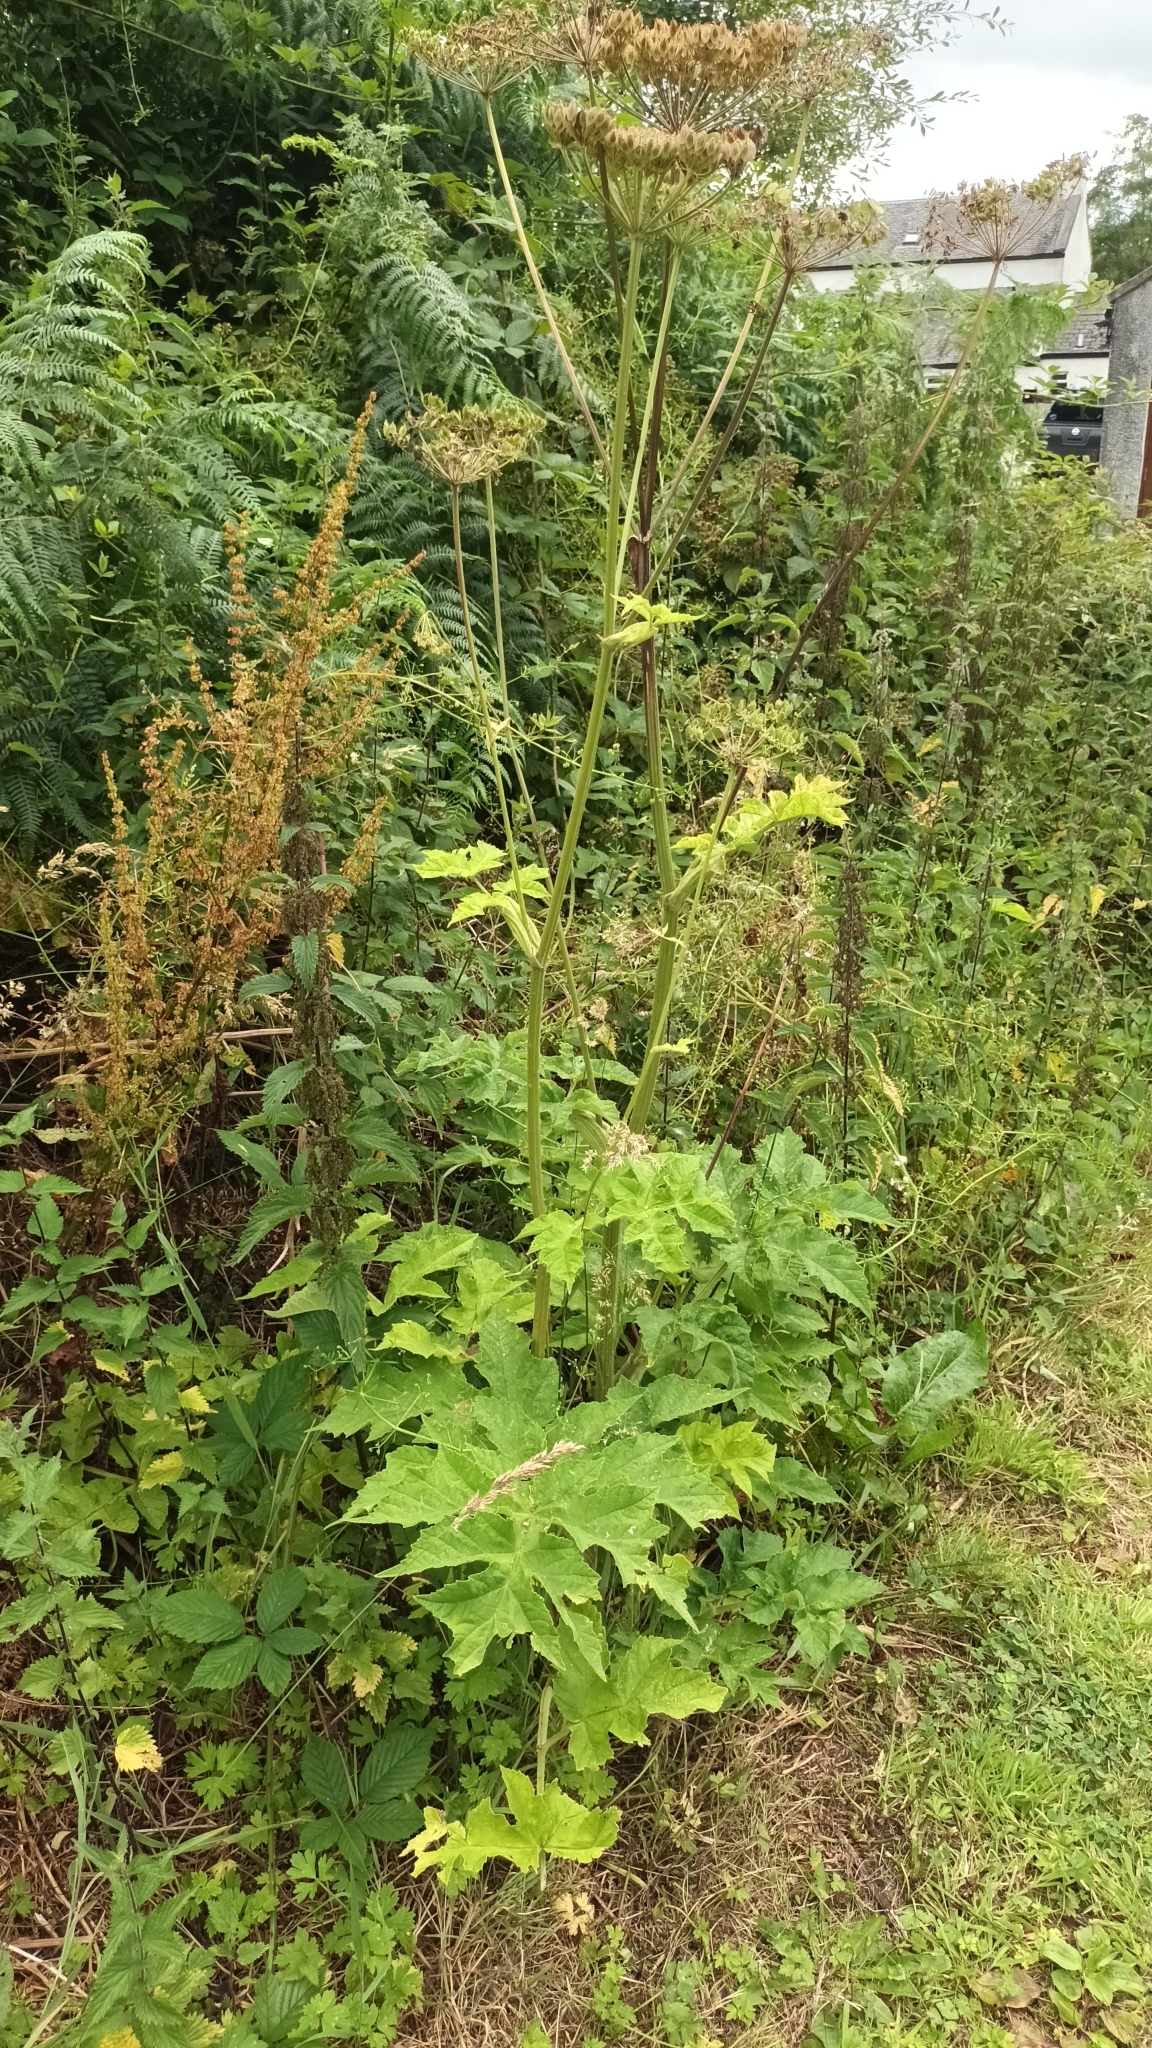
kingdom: Plantae
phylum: Tracheophyta
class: Magnoliopsida
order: Apiales
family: Apiaceae
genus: Heracleum
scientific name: Heracleum sphondylium
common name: Hogweed
